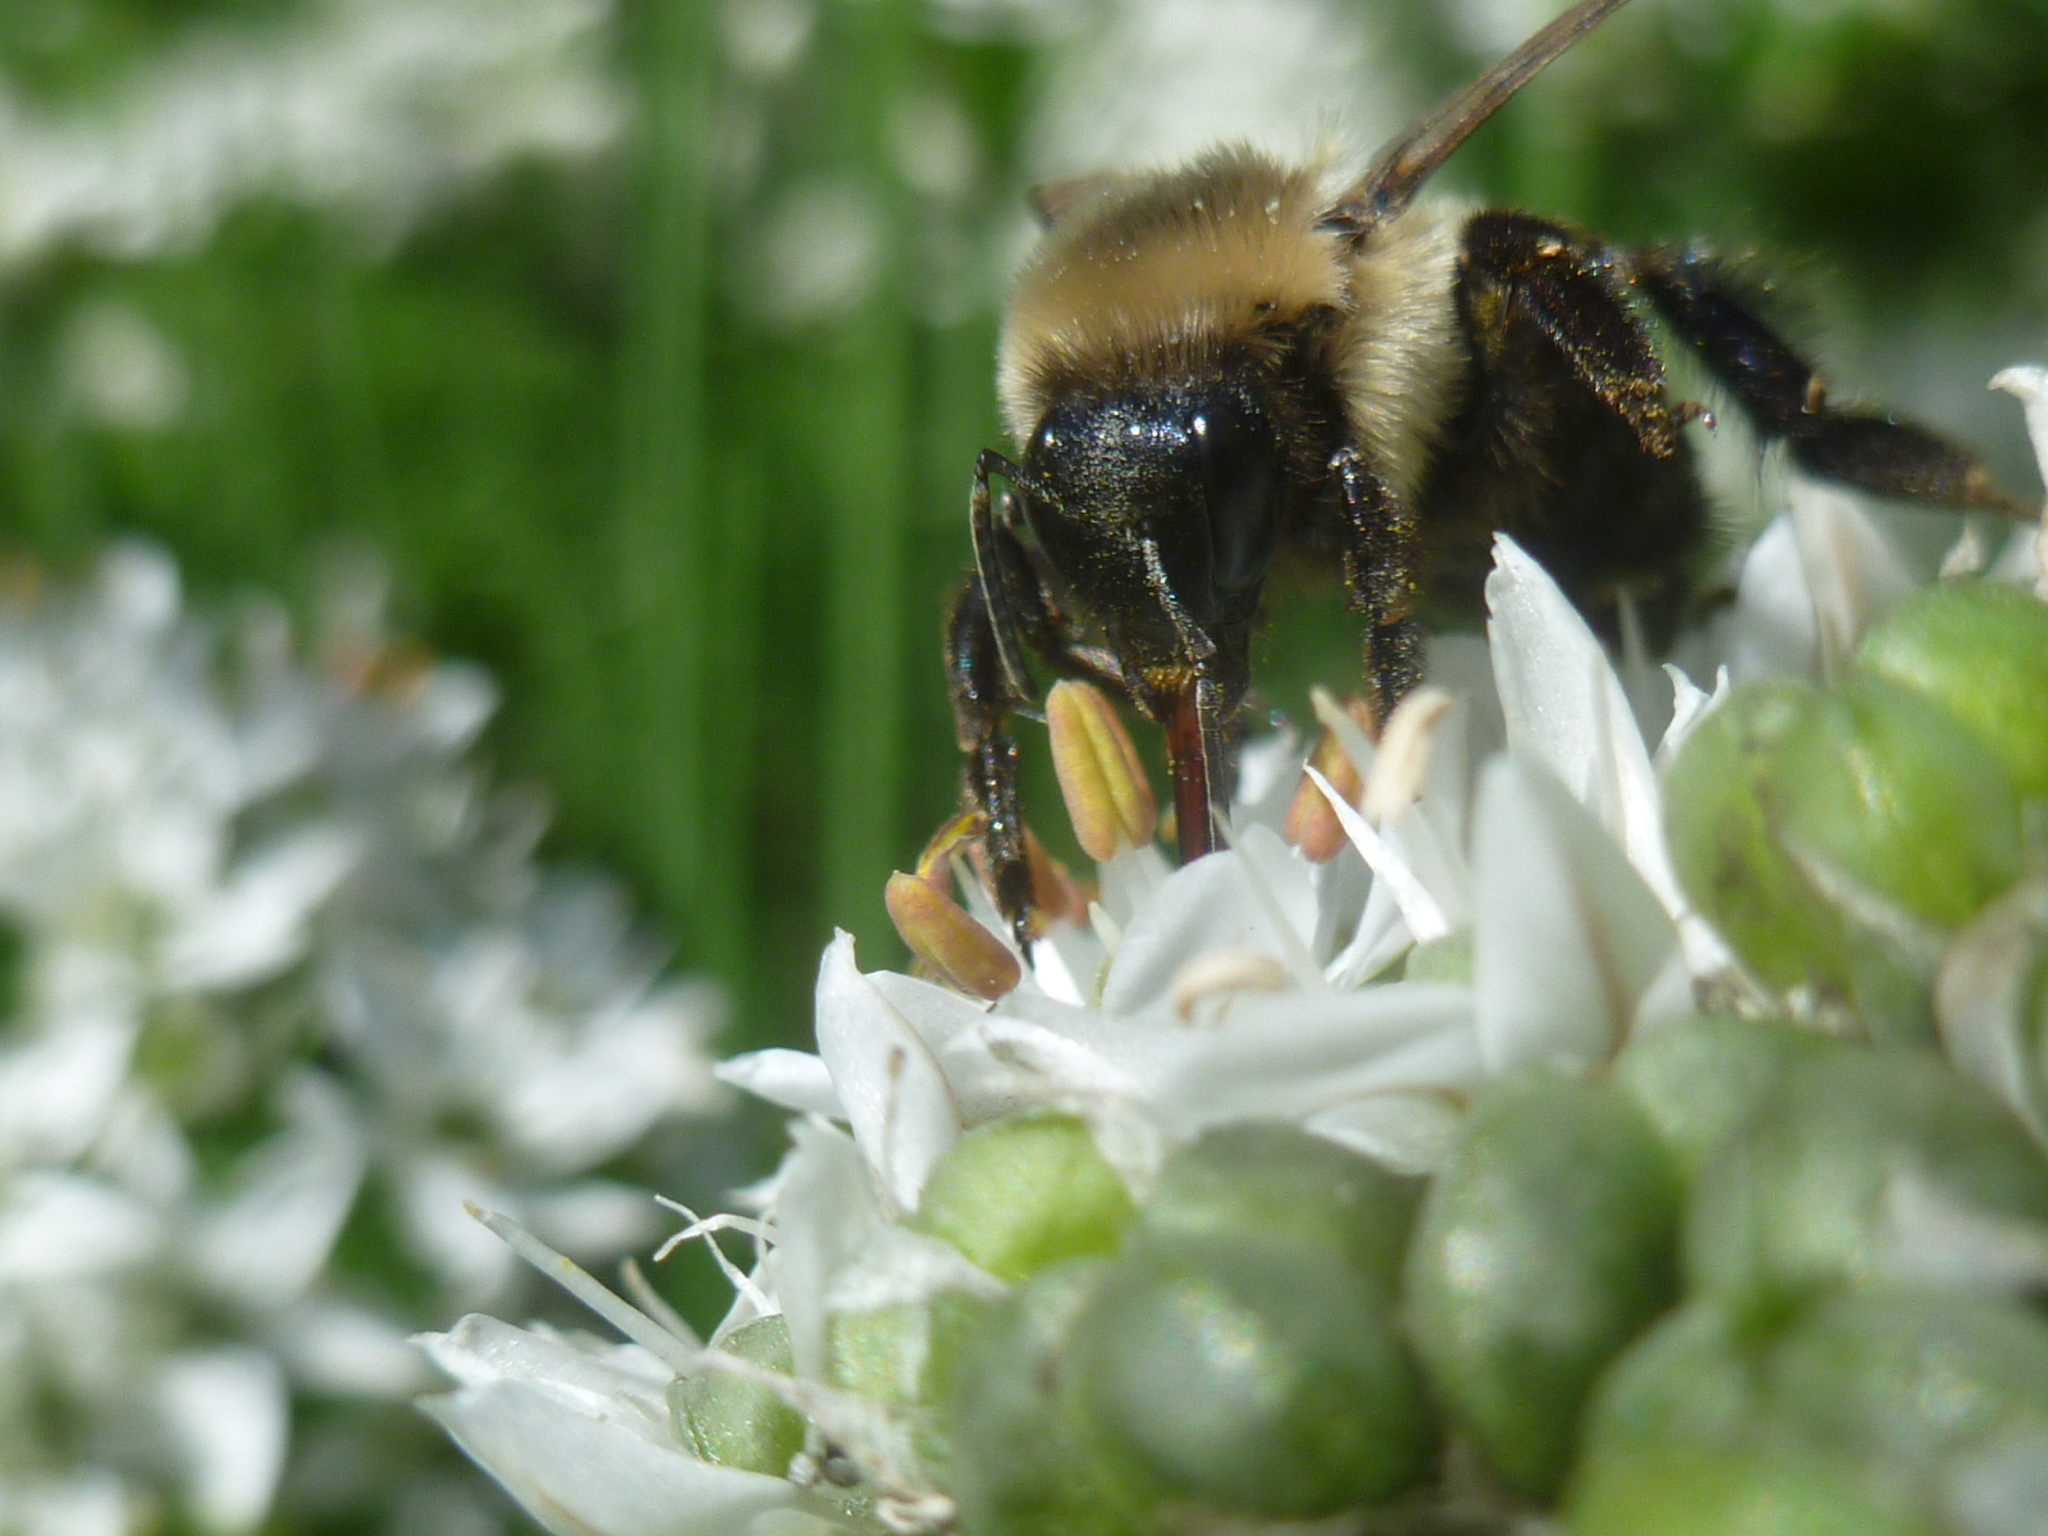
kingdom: Animalia
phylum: Arthropoda
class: Insecta
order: Hymenoptera
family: Apidae
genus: Bombus
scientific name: Bombus impatiens
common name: Common eastern bumble bee
